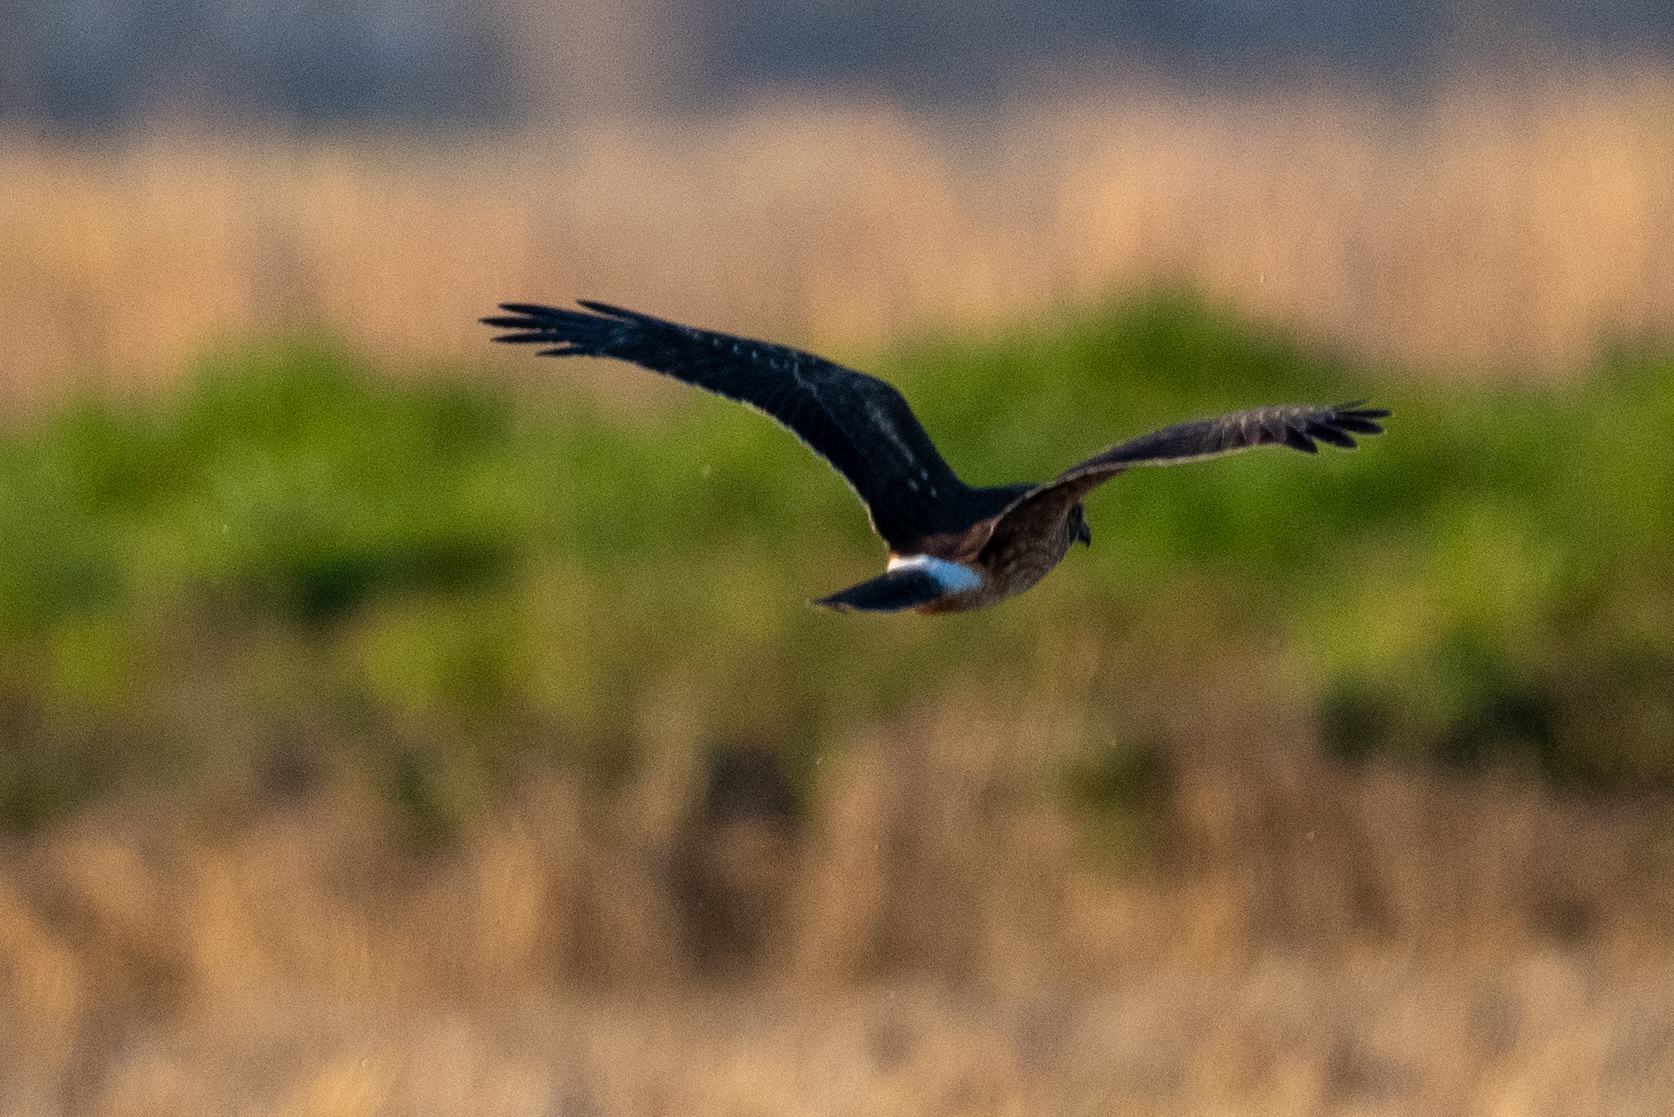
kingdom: Animalia
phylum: Chordata
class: Aves
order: Accipitriformes
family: Accipitridae
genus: Circus
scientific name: Circus cyaneus
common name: Hen harrier
